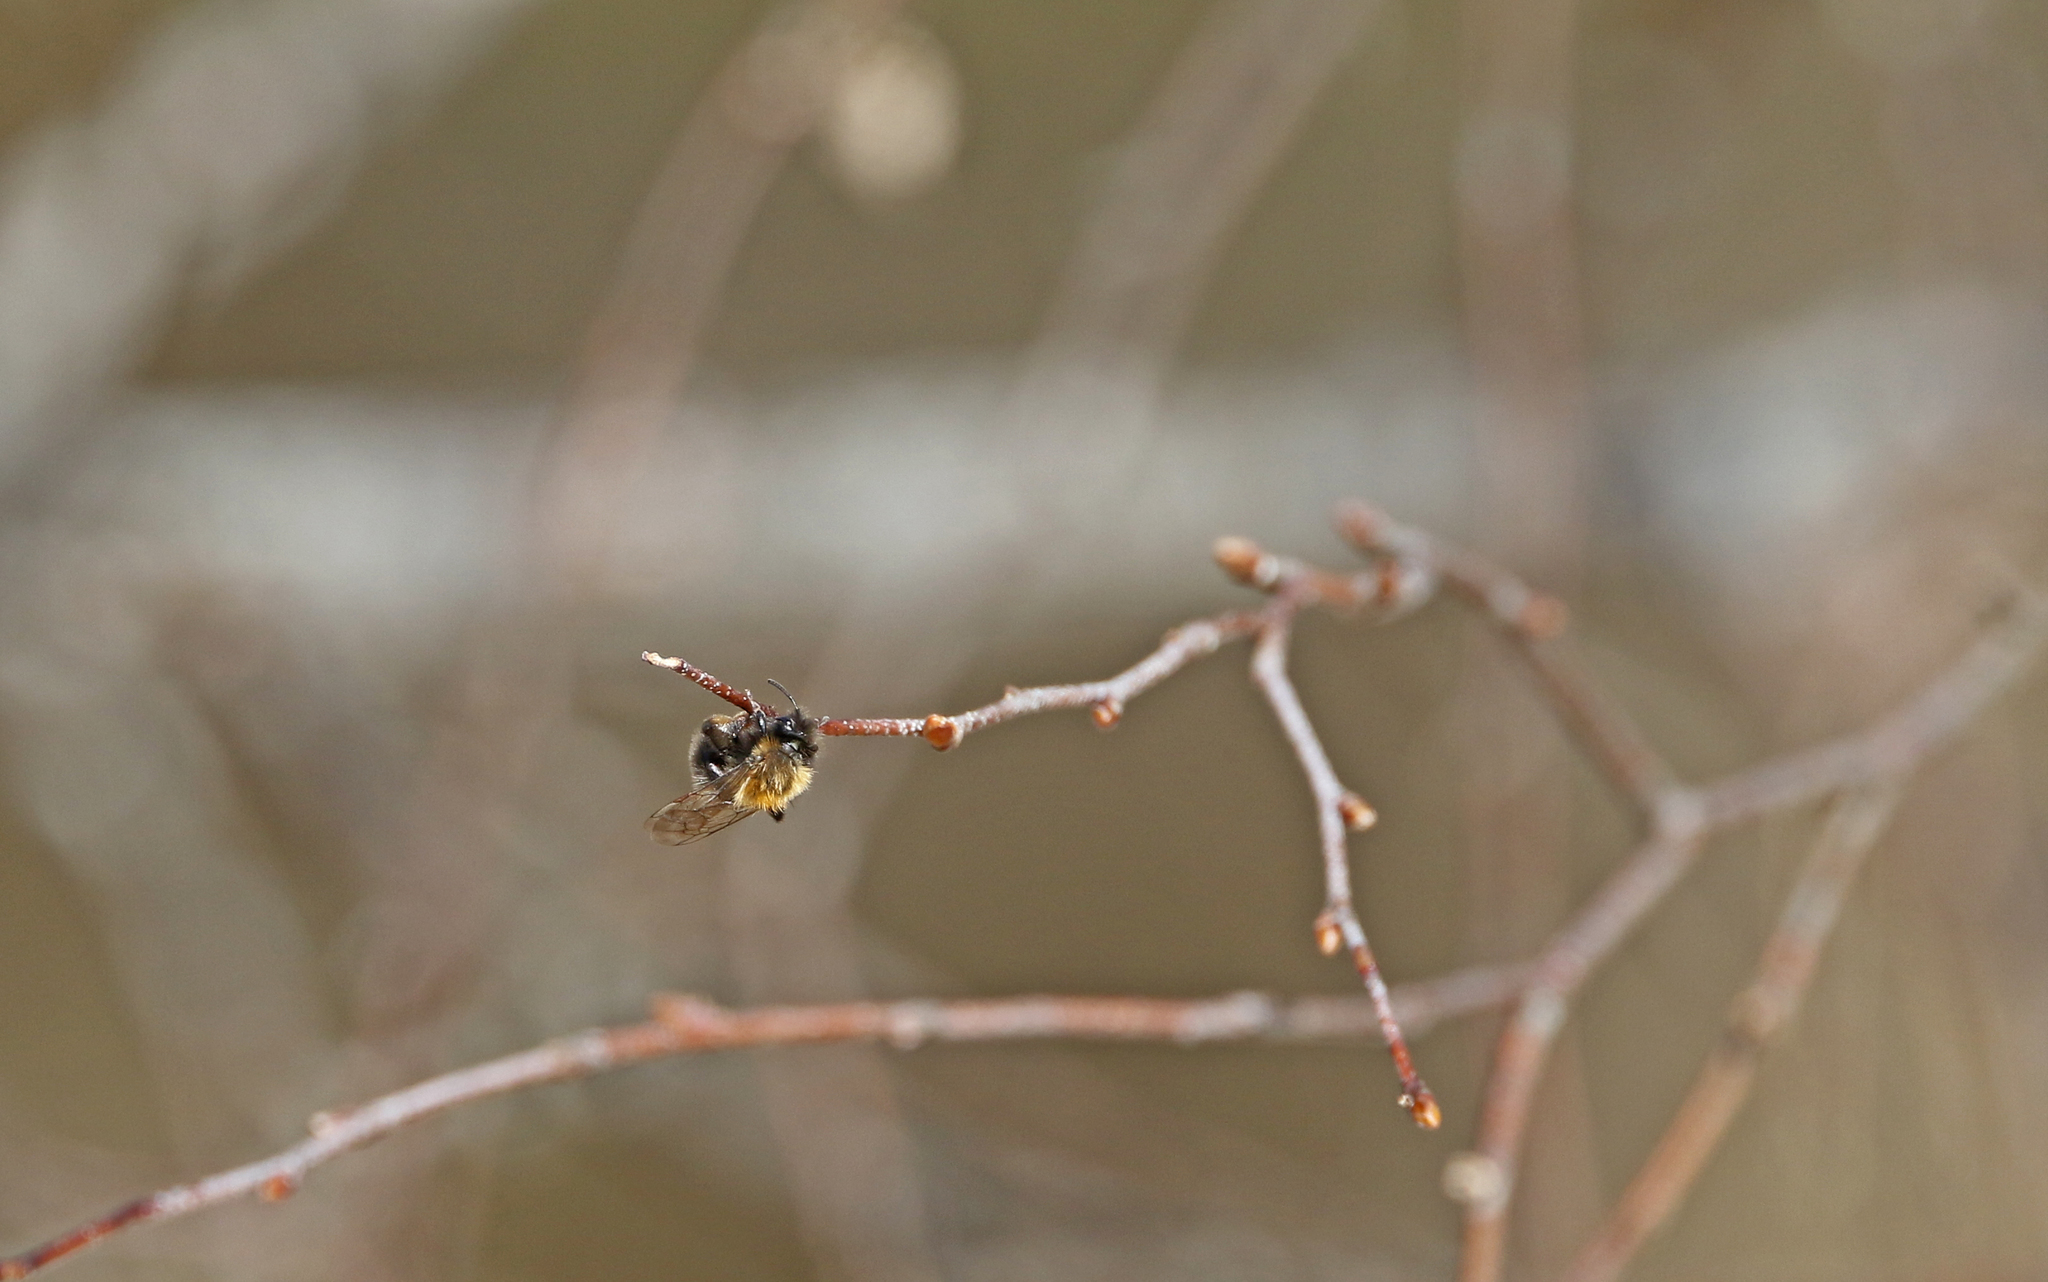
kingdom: Animalia
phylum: Arthropoda
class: Insecta
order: Hymenoptera
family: Andrenidae
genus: Andrena
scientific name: Andrena clarkella
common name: Clarke's mining bee
